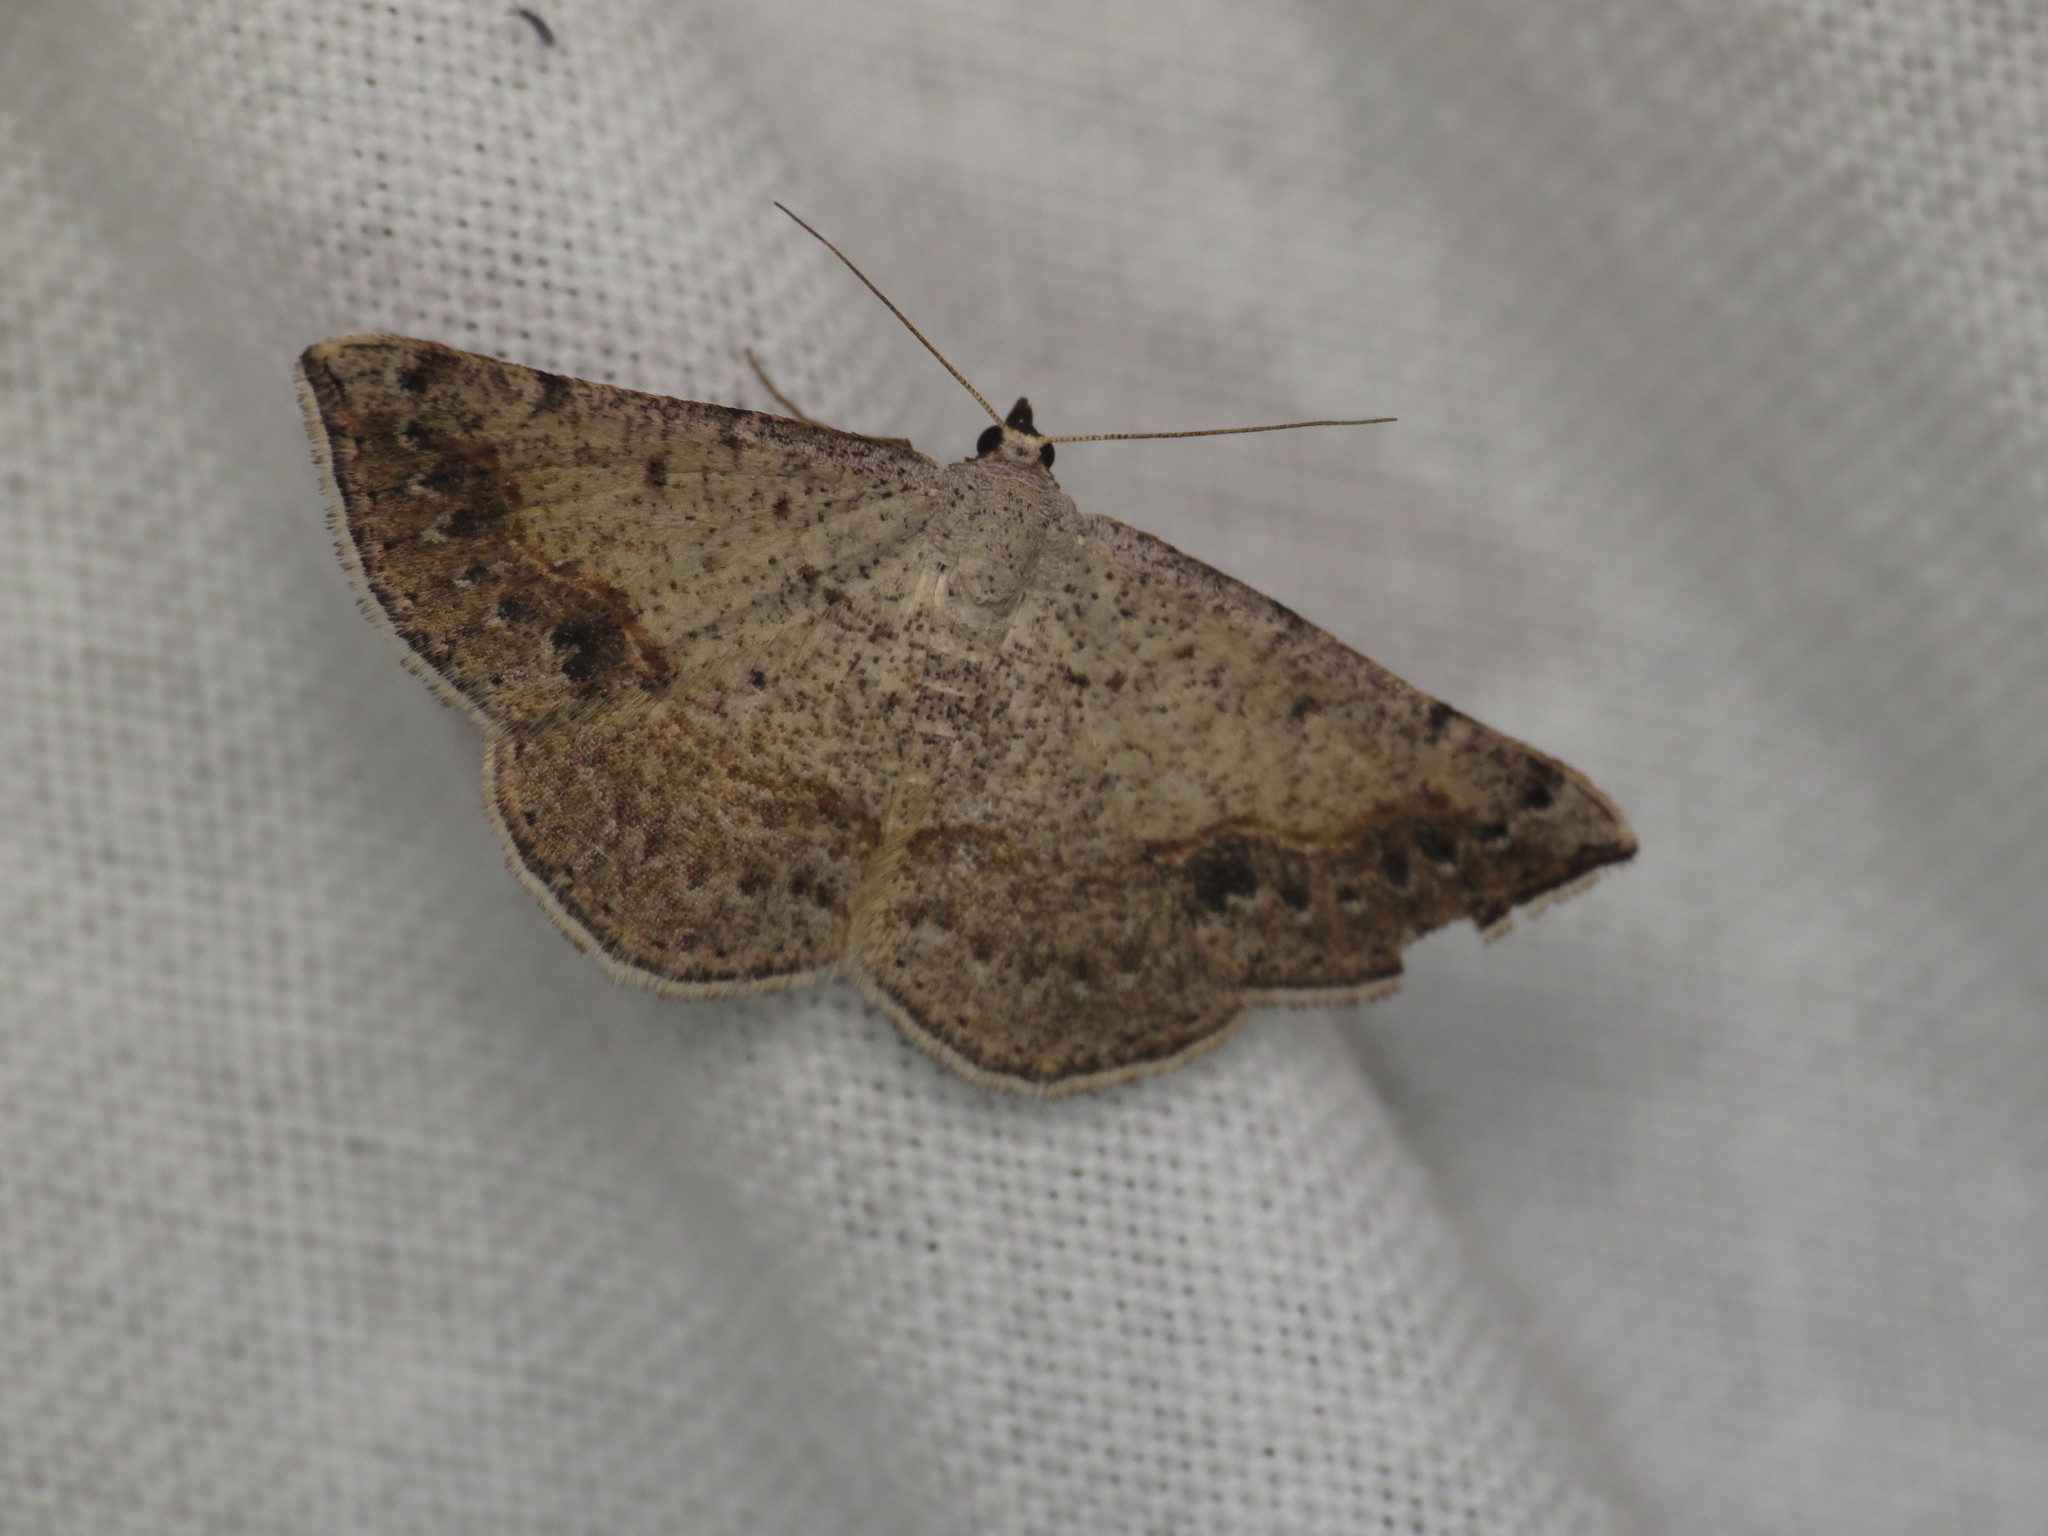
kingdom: Animalia
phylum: Arthropoda
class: Insecta
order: Lepidoptera
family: Geometridae
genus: Taxeotis
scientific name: Taxeotis intextata
